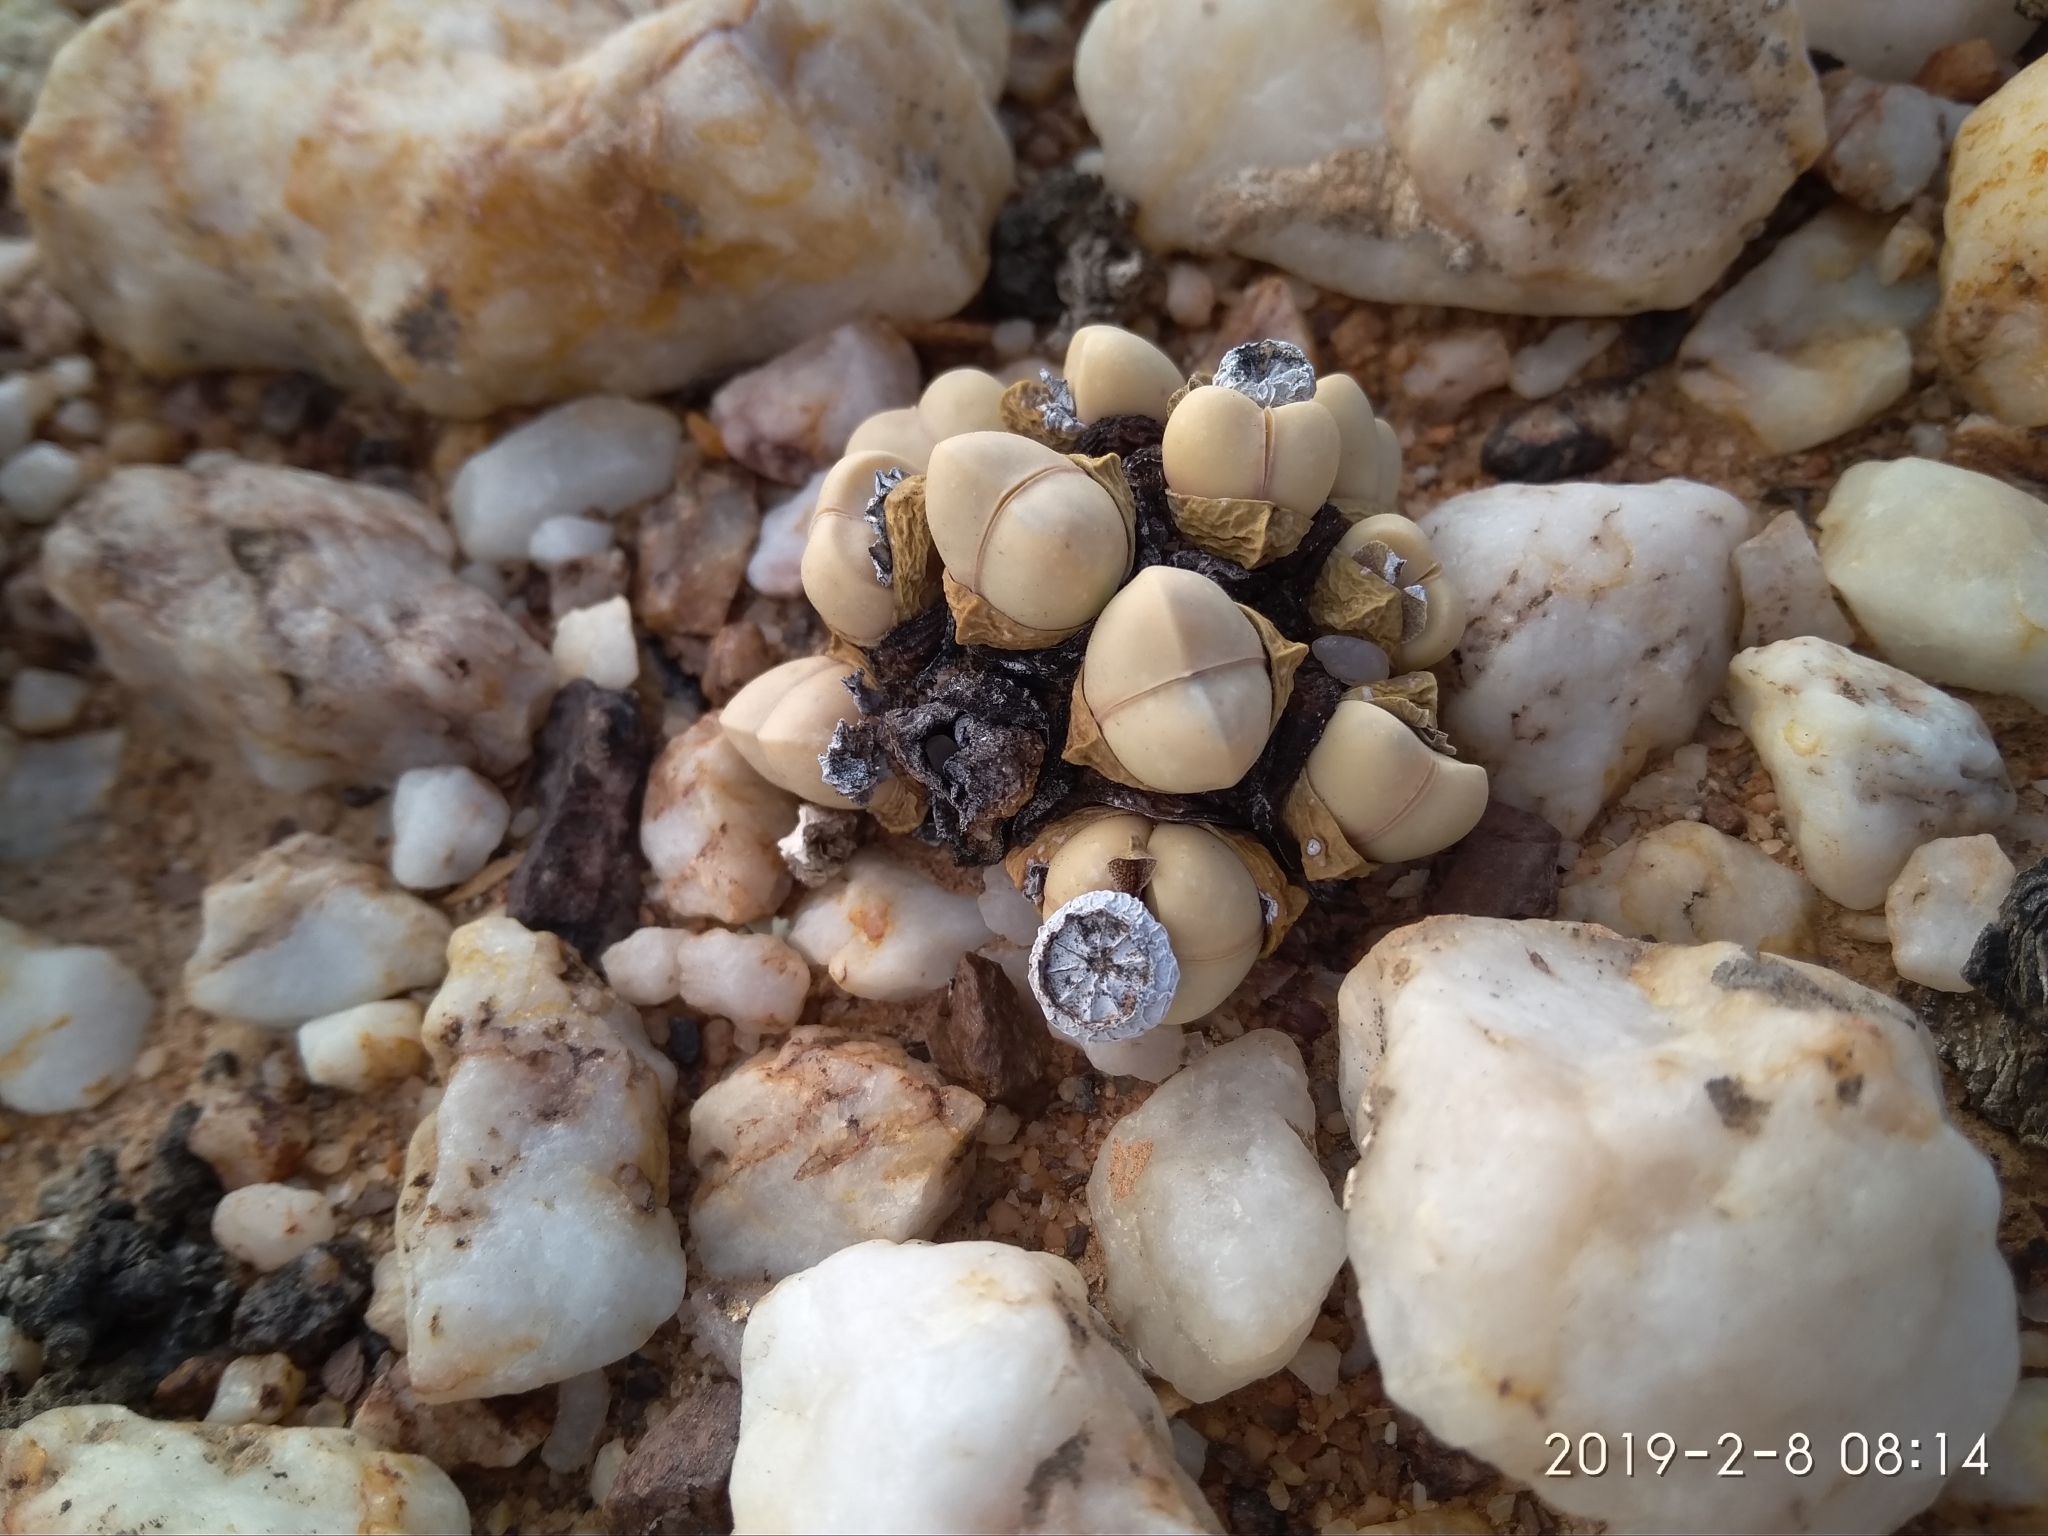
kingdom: Plantae
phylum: Tracheophyta
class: Magnoliopsida
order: Caryophyllales
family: Aizoaceae
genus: Argyroderma
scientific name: Argyroderma framesii
